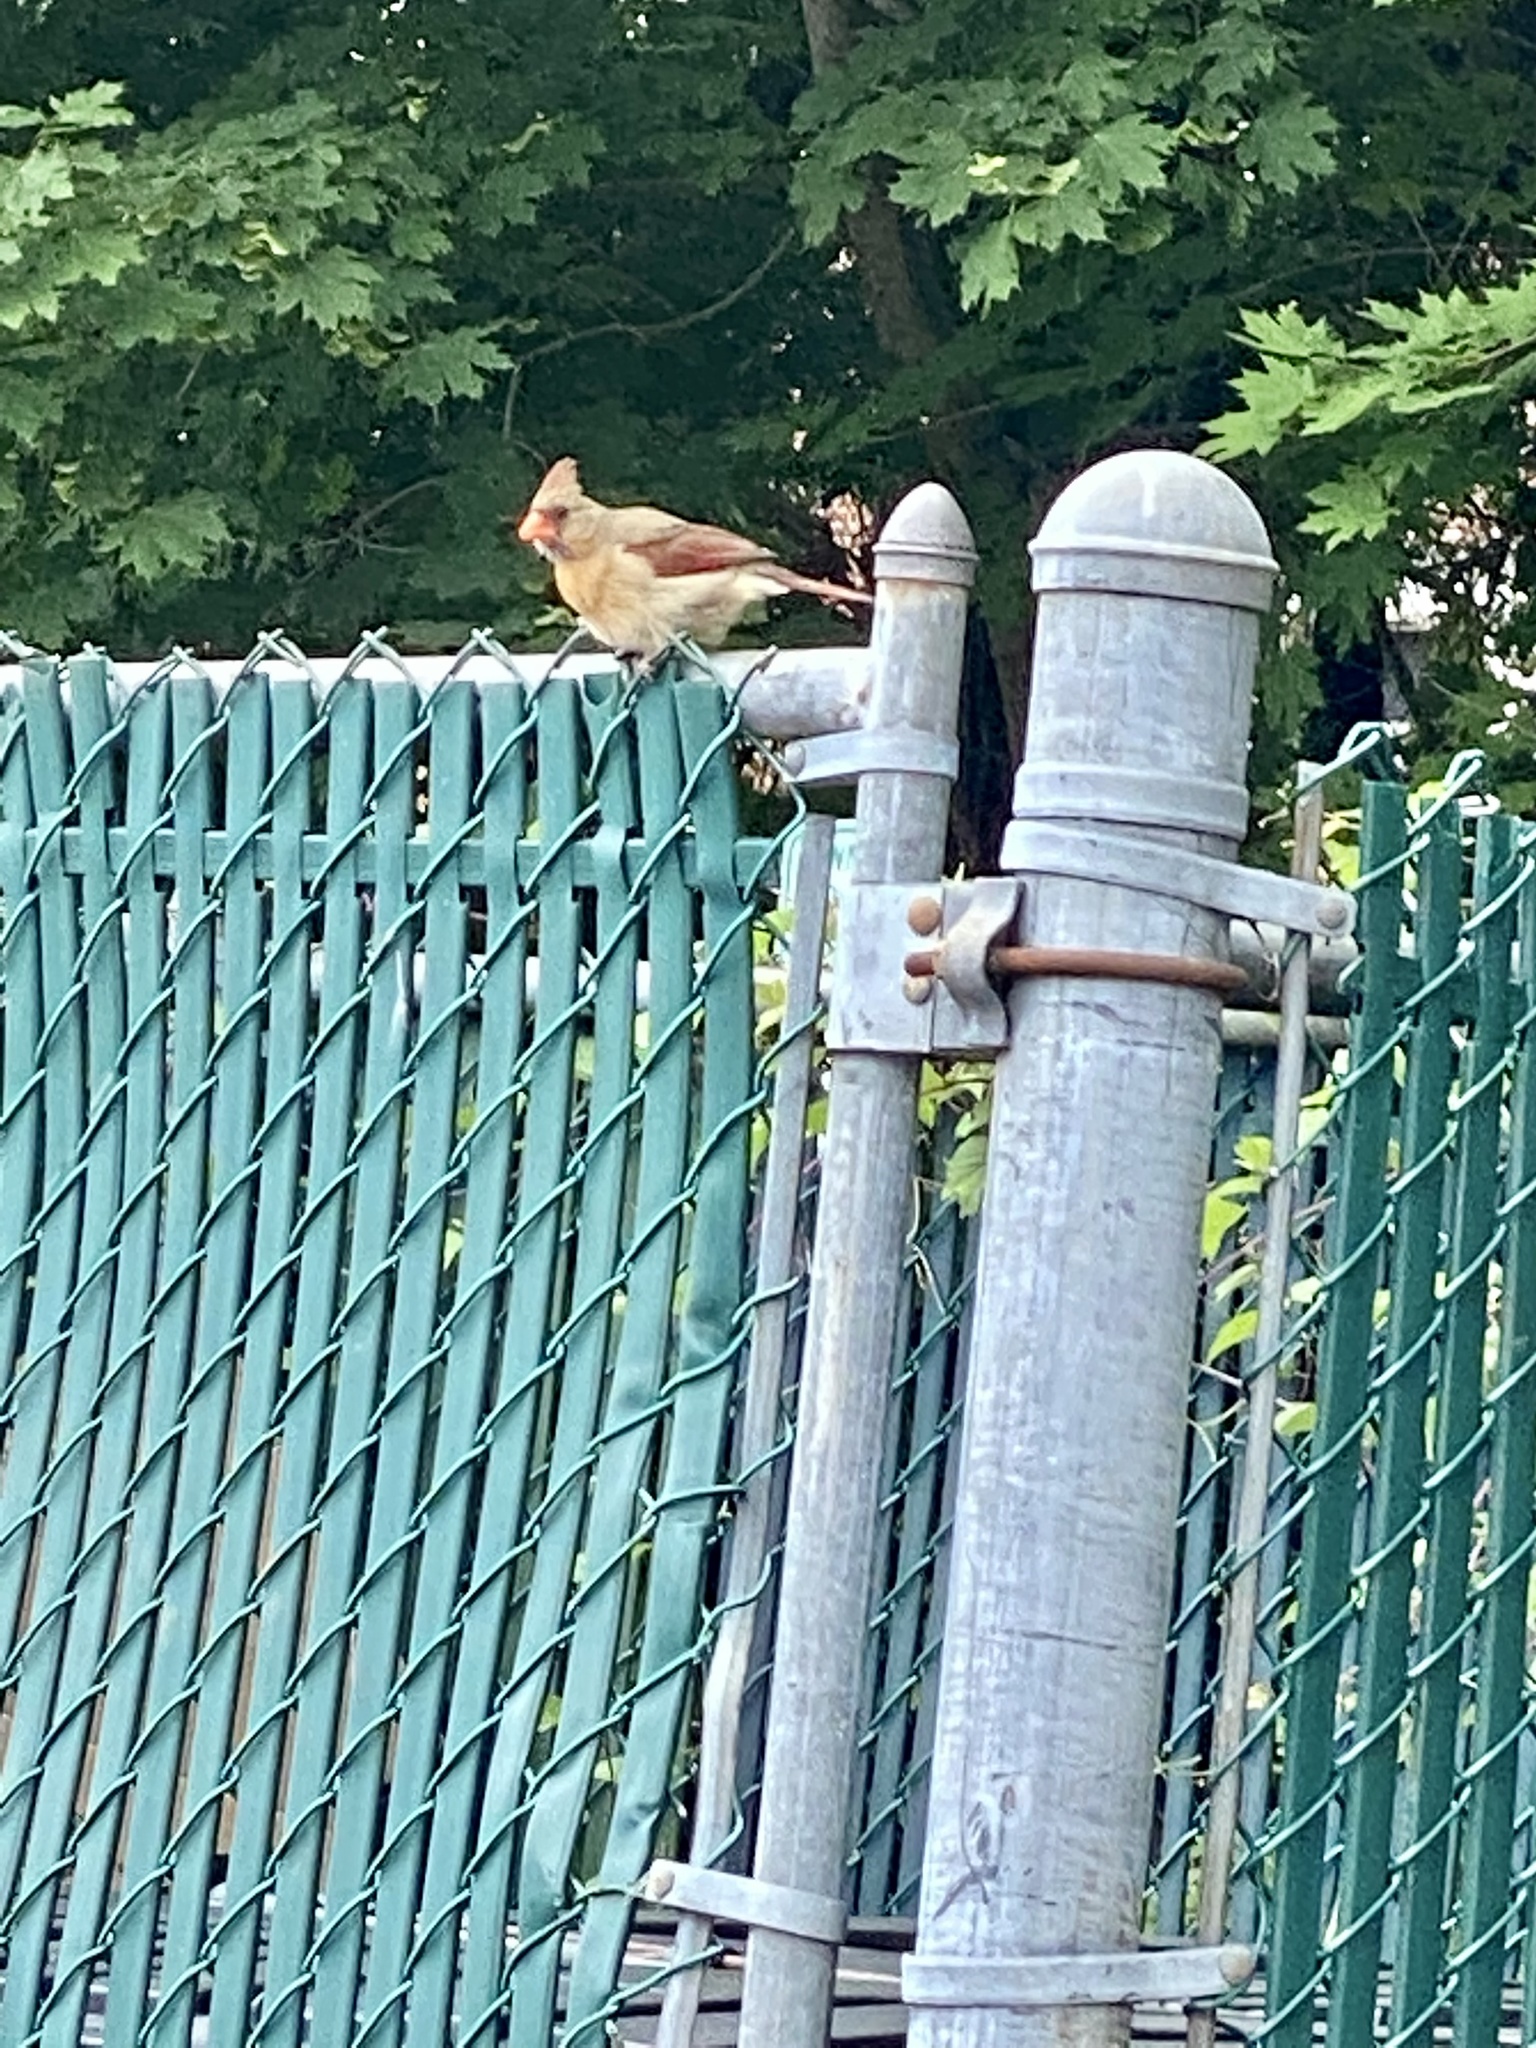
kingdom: Animalia
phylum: Chordata
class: Aves
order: Passeriformes
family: Cardinalidae
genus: Cardinalis
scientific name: Cardinalis cardinalis
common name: Northern cardinal
